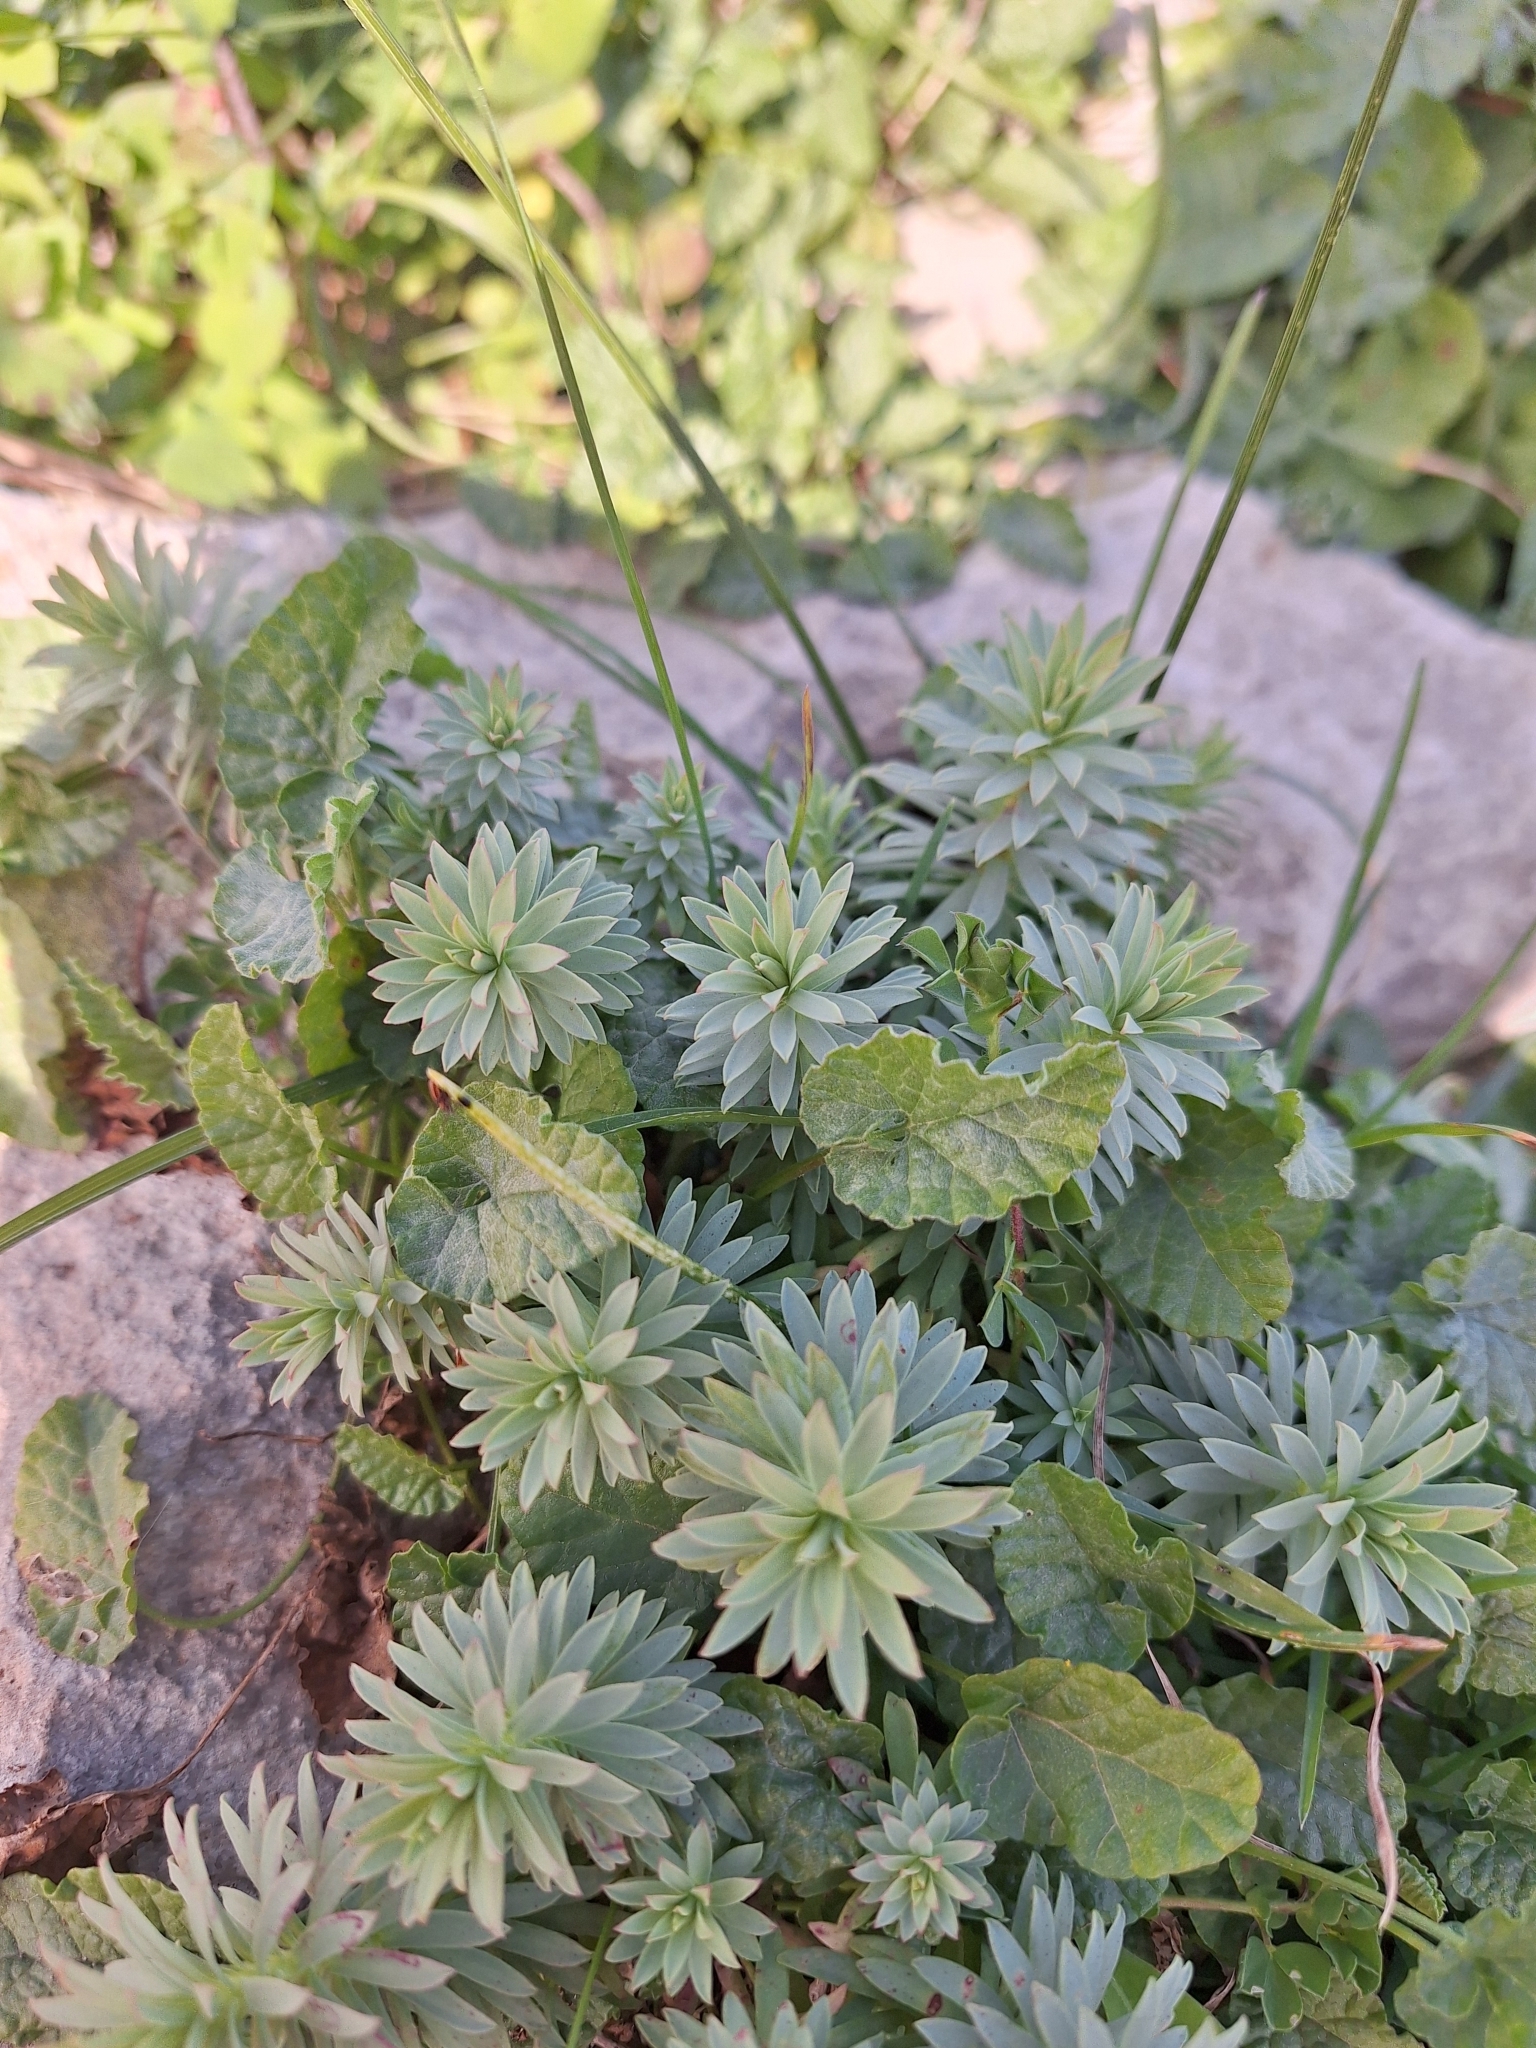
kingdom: Plantae
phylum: Tracheophyta
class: Magnoliopsida
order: Malpighiales
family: Euphorbiaceae
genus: Euphorbia
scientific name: Euphorbia segetalis
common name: Corn spurge
